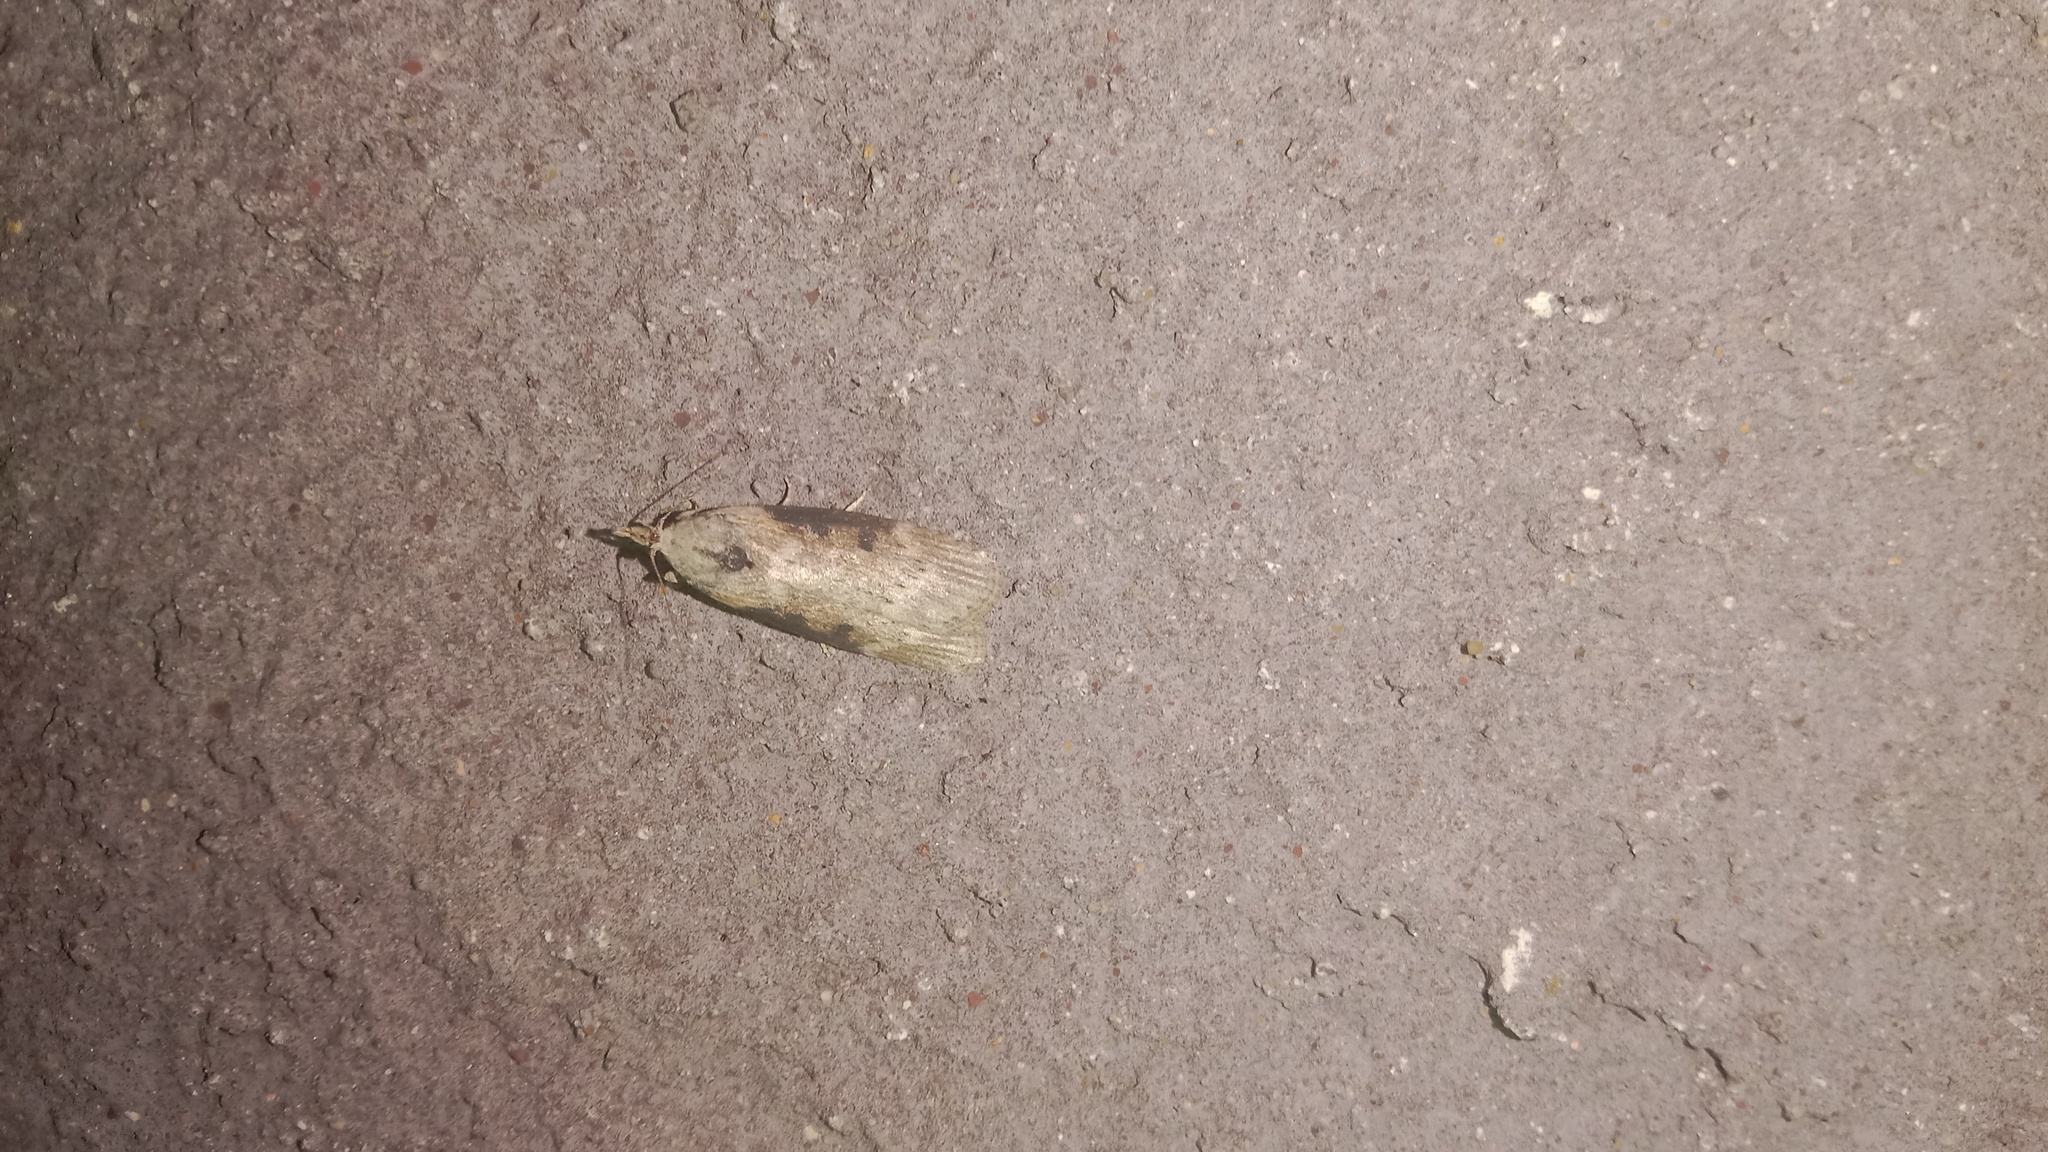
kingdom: Animalia
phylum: Arthropoda
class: Insecta
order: Lepidoptera
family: Pyralidae
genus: Lamoria
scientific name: Lamoria anella
